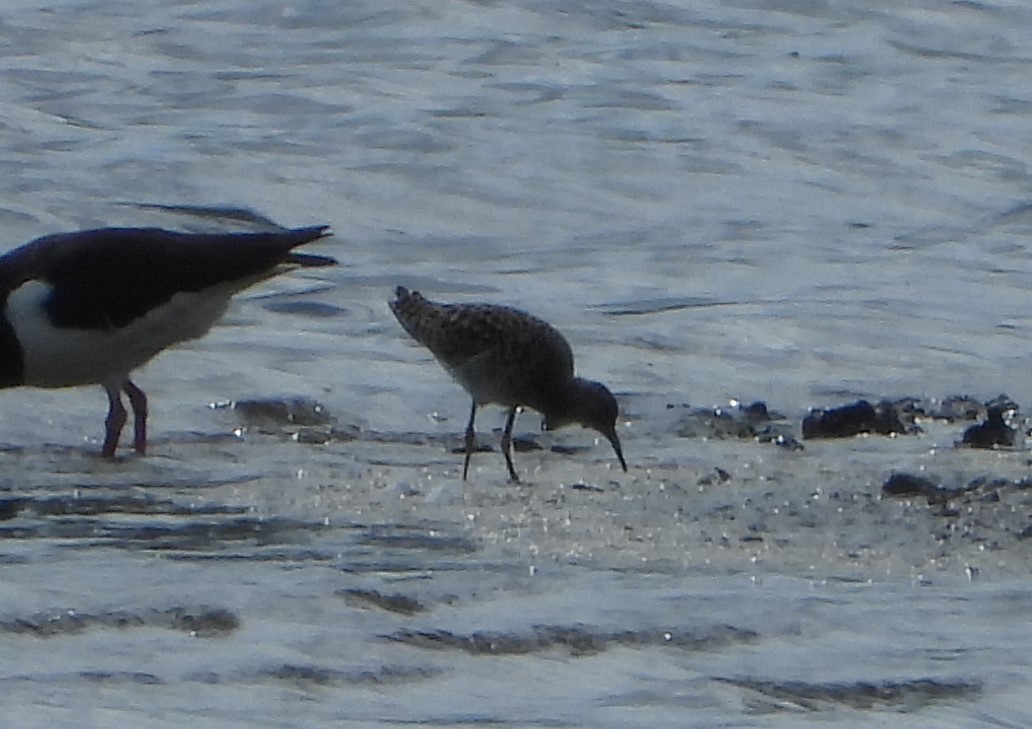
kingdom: Animalia
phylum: Chordata
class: Aves
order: Charadriiformes
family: Scolopacidae
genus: Calidris
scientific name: Calidris pugnax
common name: Ruff
